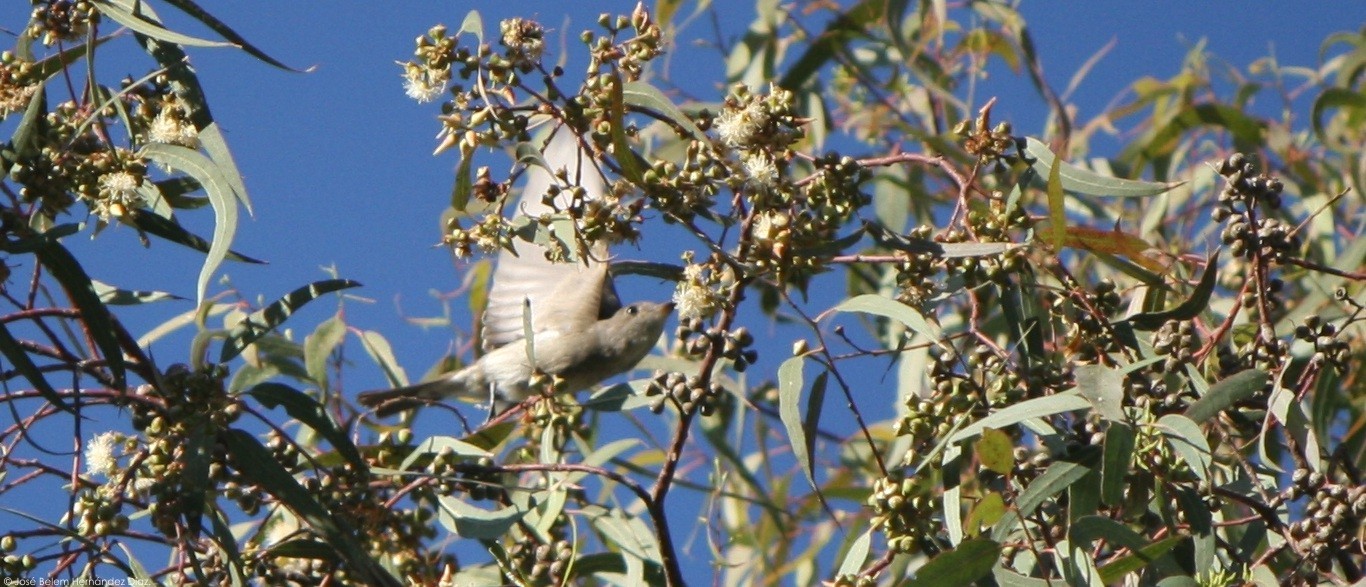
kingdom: Animalia
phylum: Chordata
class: Aves
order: Passeriformes
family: Tyrannidae
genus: Contopus
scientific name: Contopus sordidulus
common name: Western wood-pewee
